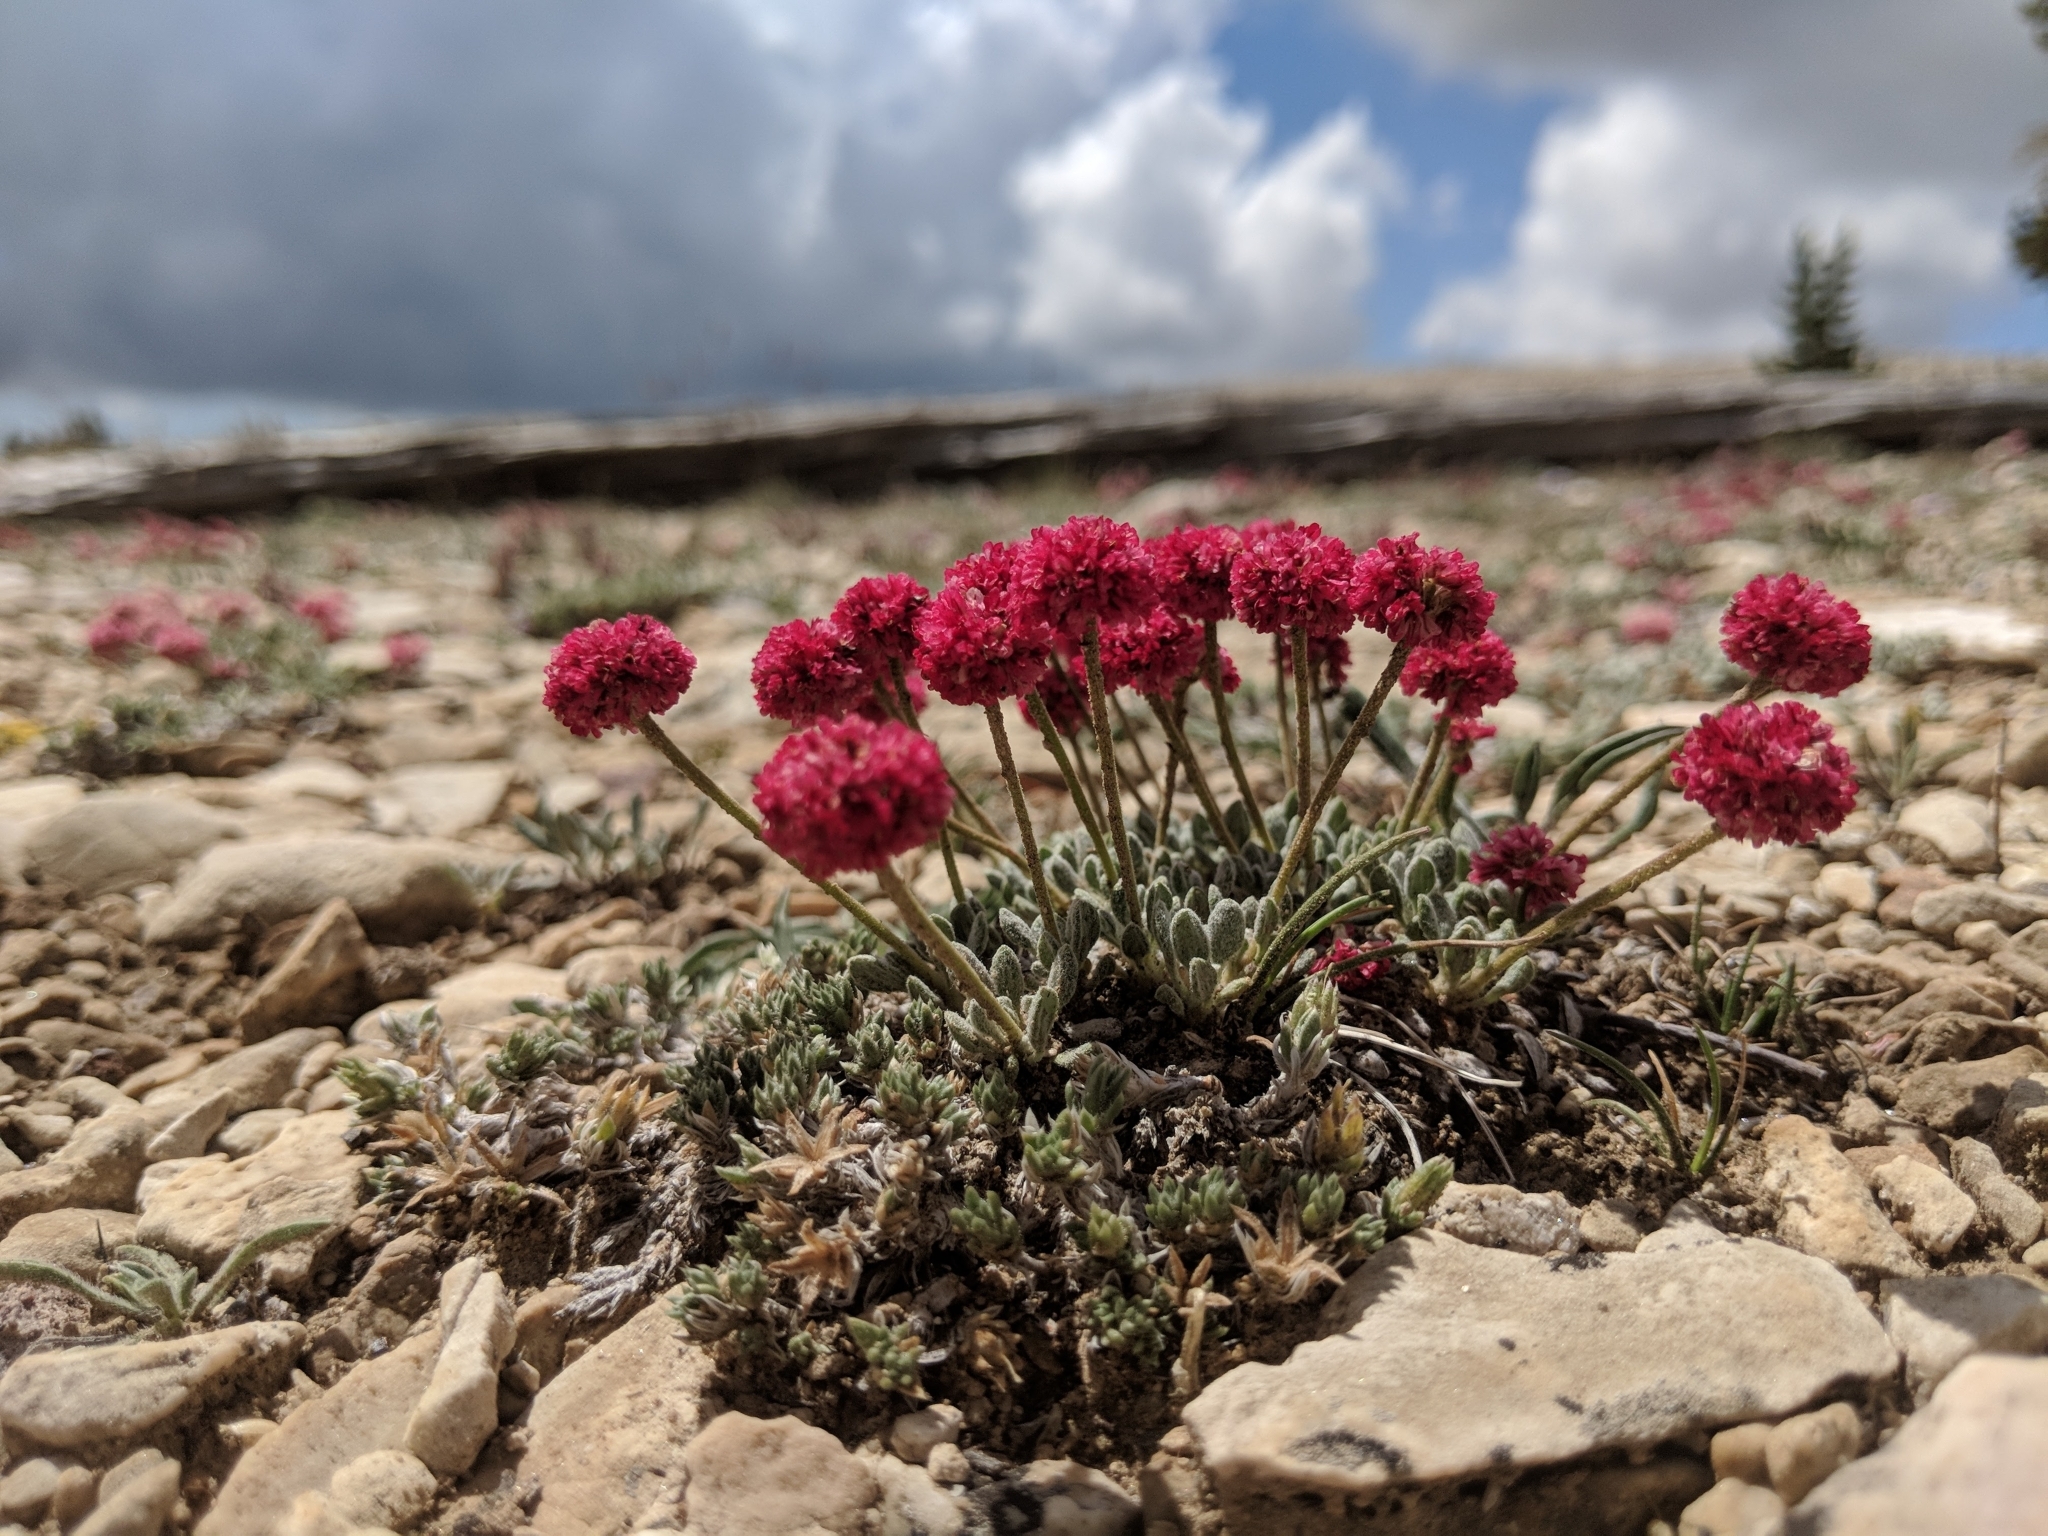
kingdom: Plantae
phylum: Tracheophyta
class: Magnoliopsida
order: Caryophyllales
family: Polygonaceae
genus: Eriogonum
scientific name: Eriogonum gracilipes
